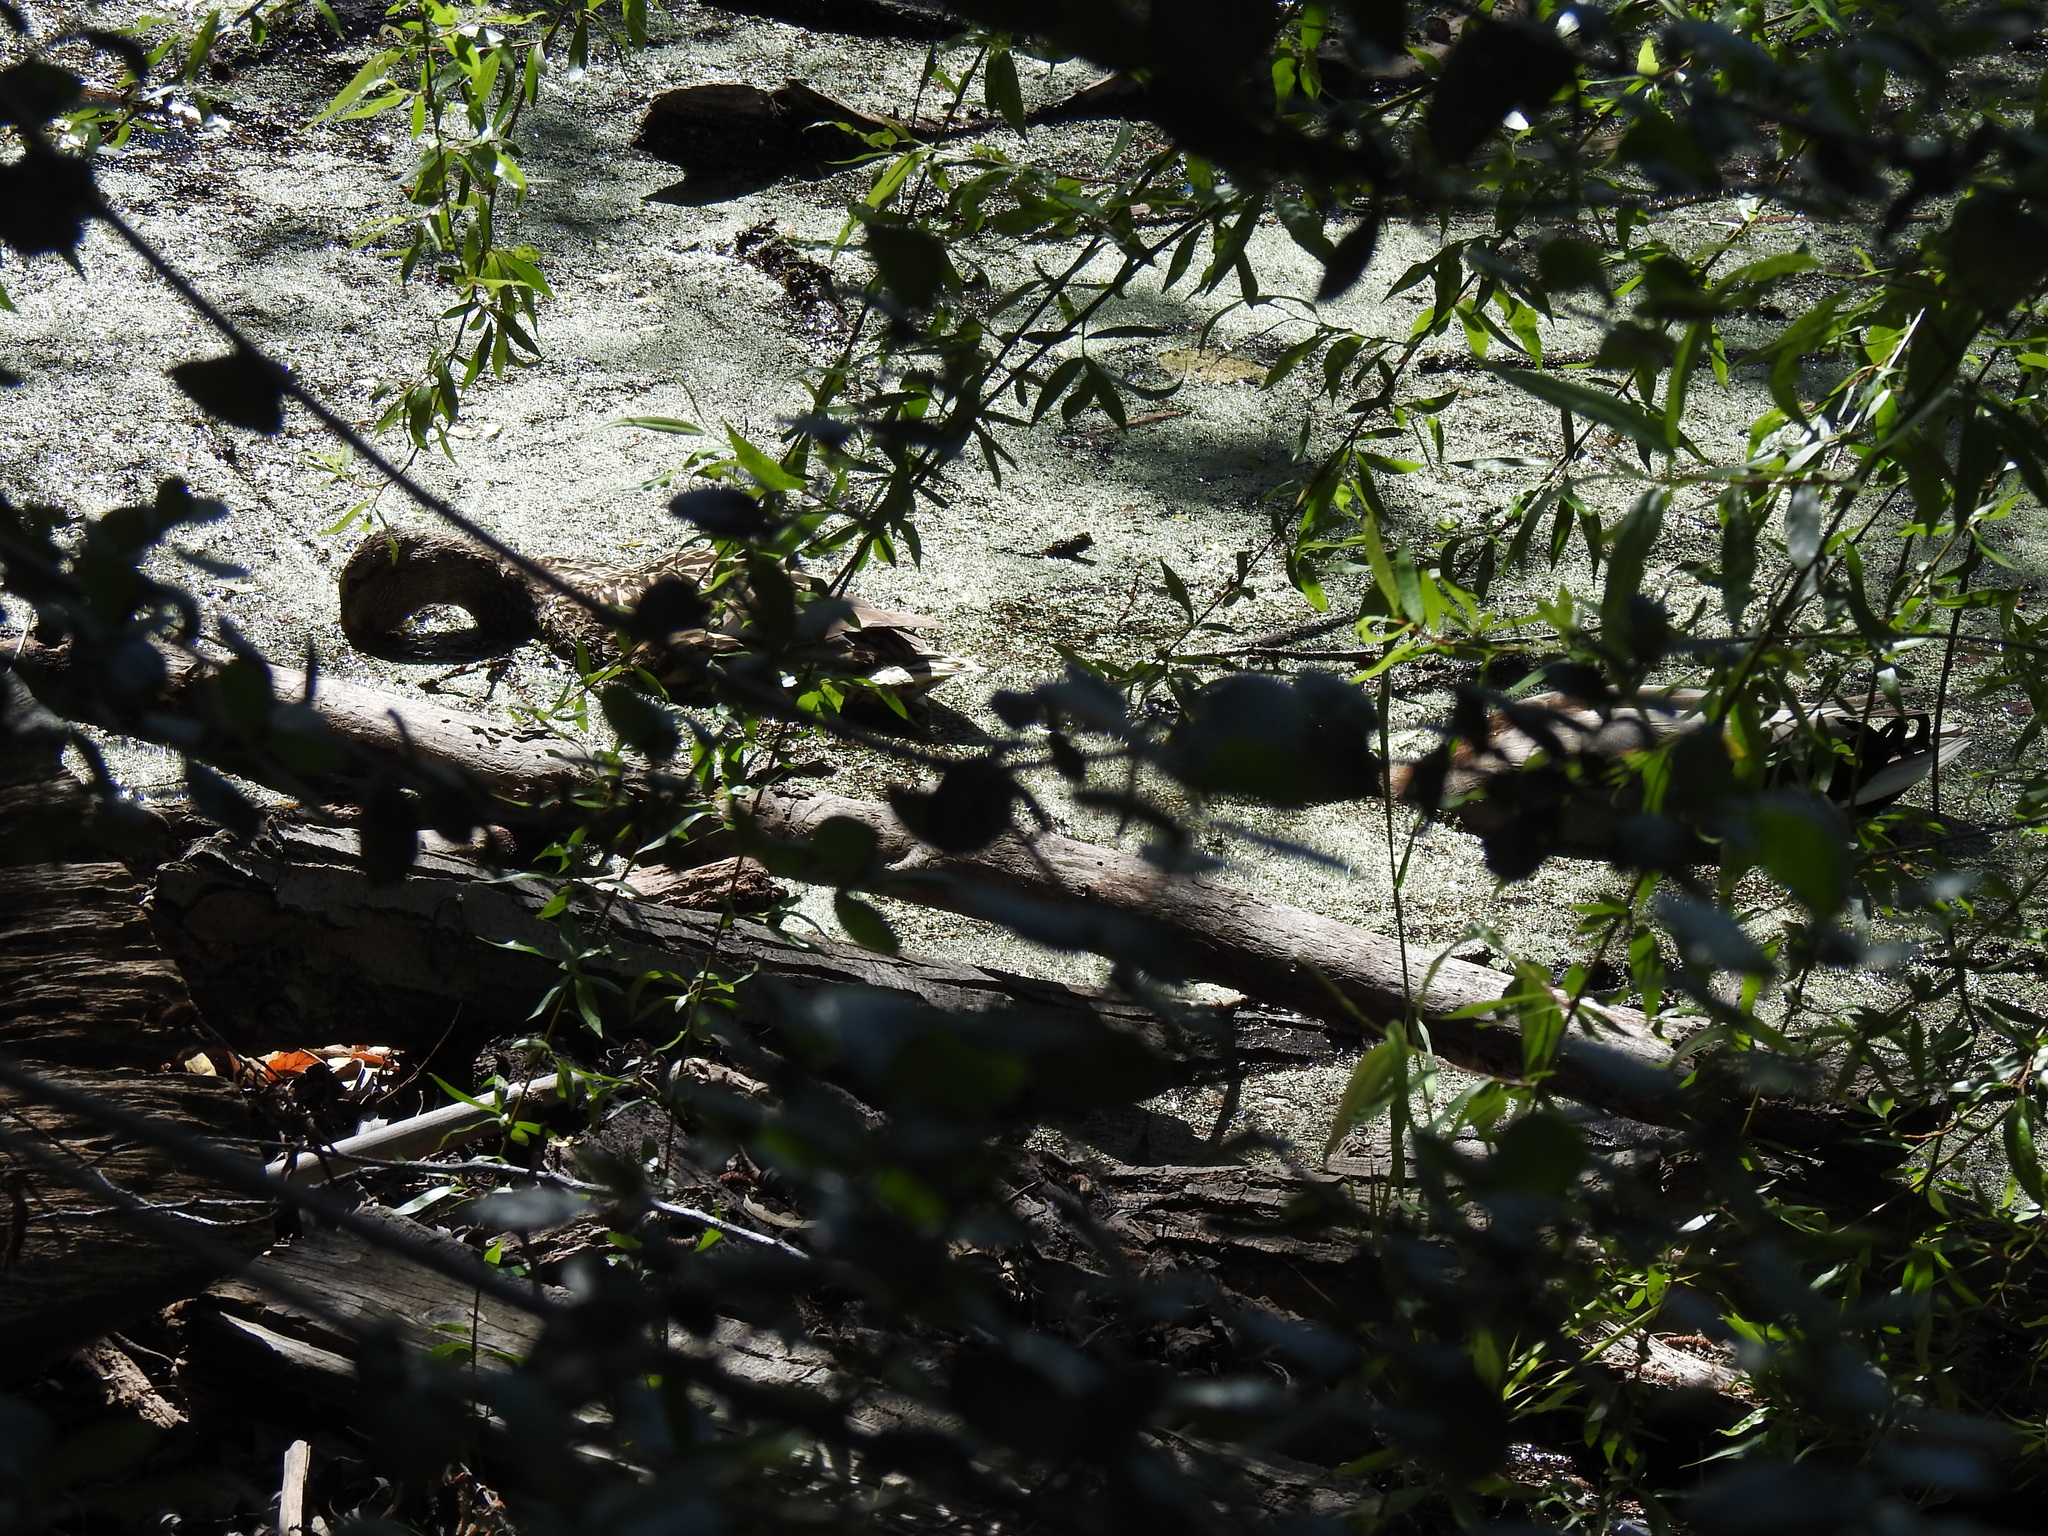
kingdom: Animalia
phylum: Chordata
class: Aves
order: Anseriformes
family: Anatidae
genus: Anas
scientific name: Anas platyrhynchos
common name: Mallard
